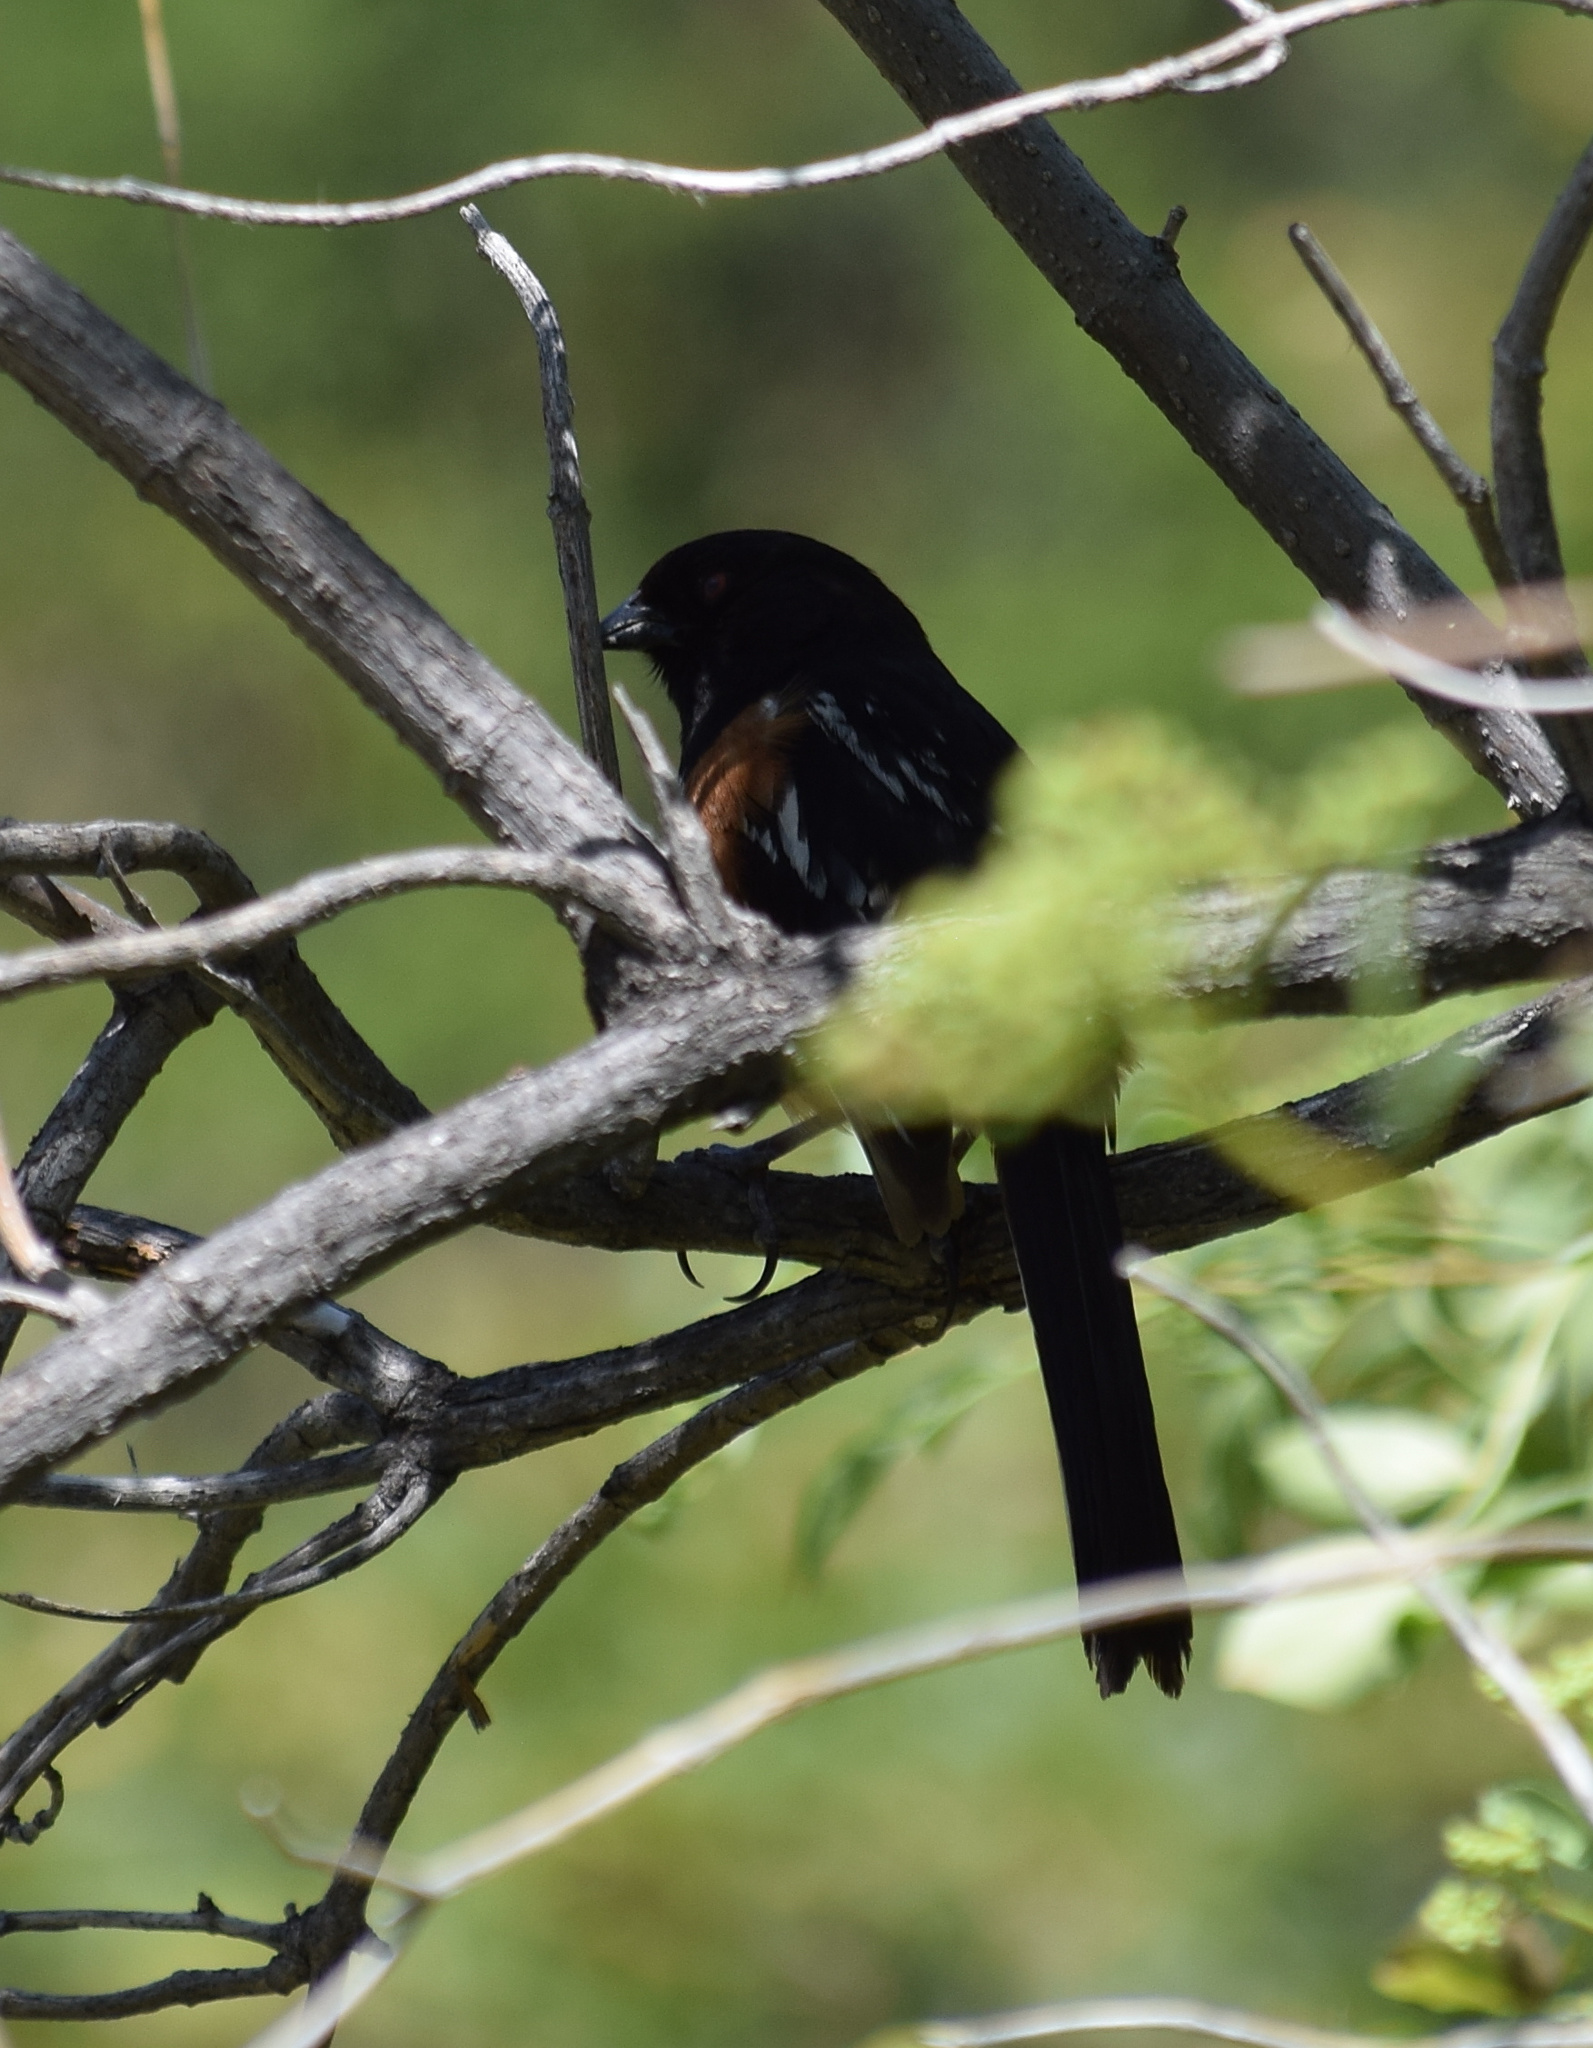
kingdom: Animalia
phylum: Chordata
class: Aves
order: Passeriformes
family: Passerellidae
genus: Pipilo
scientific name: Pipilo maculatus
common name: Spotted towhee
